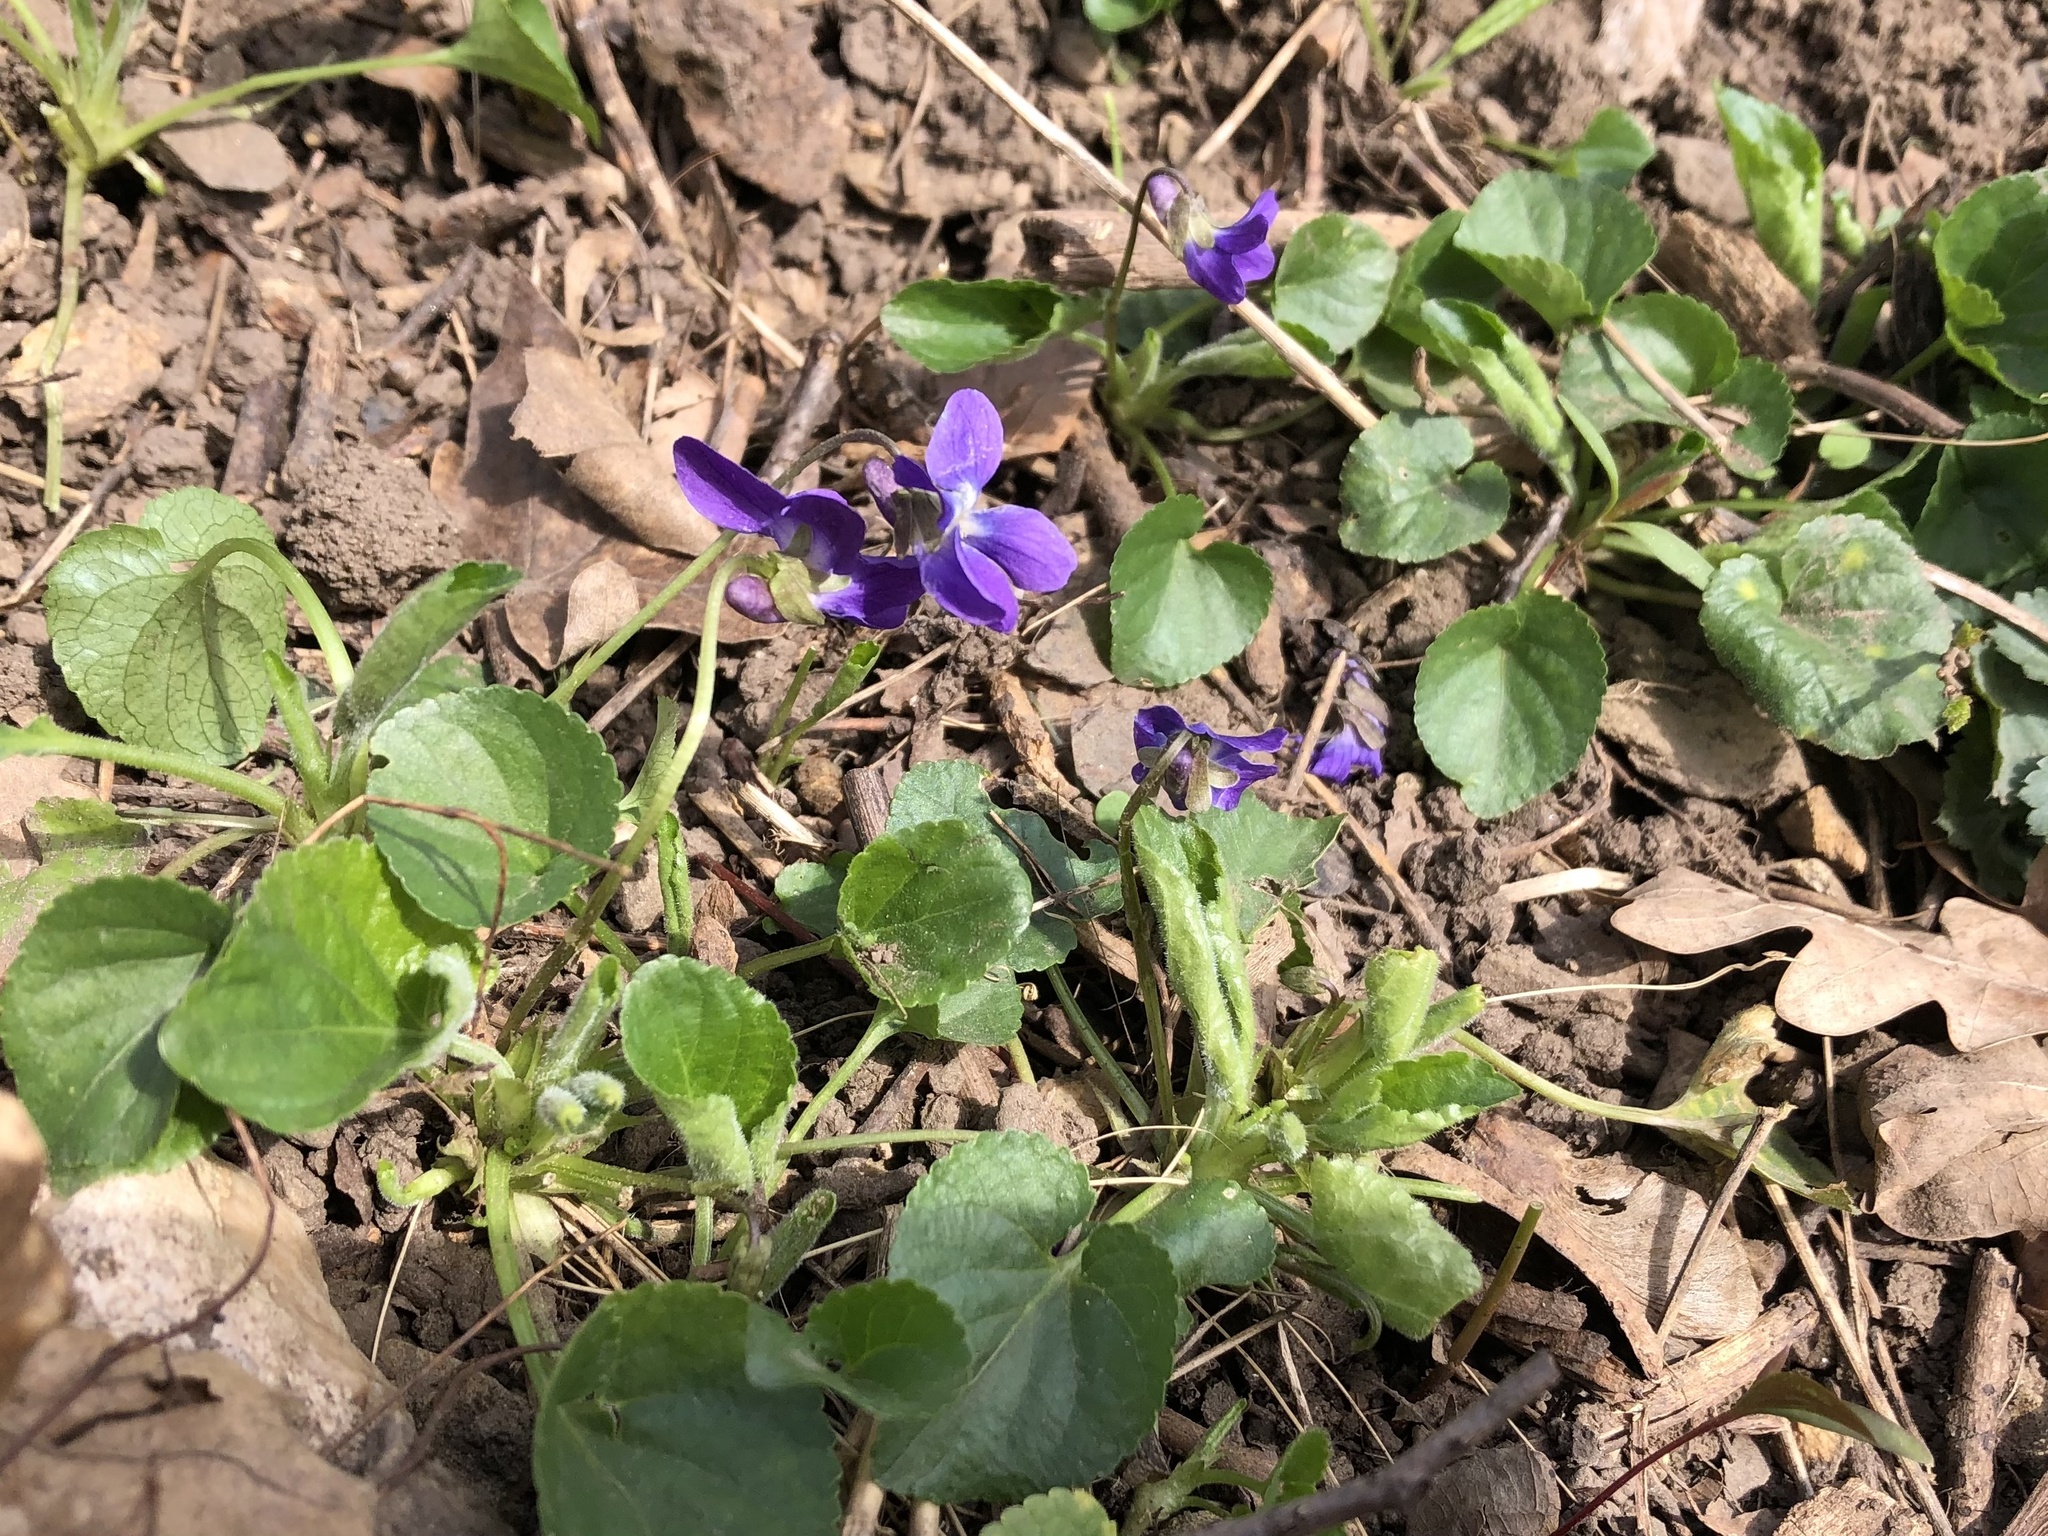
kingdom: Plantae
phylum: Tracheophyta
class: Magnoliopsida
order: Malpighiales
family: Violaceae
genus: Viola
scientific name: Viola odorata
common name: Sweet violet
